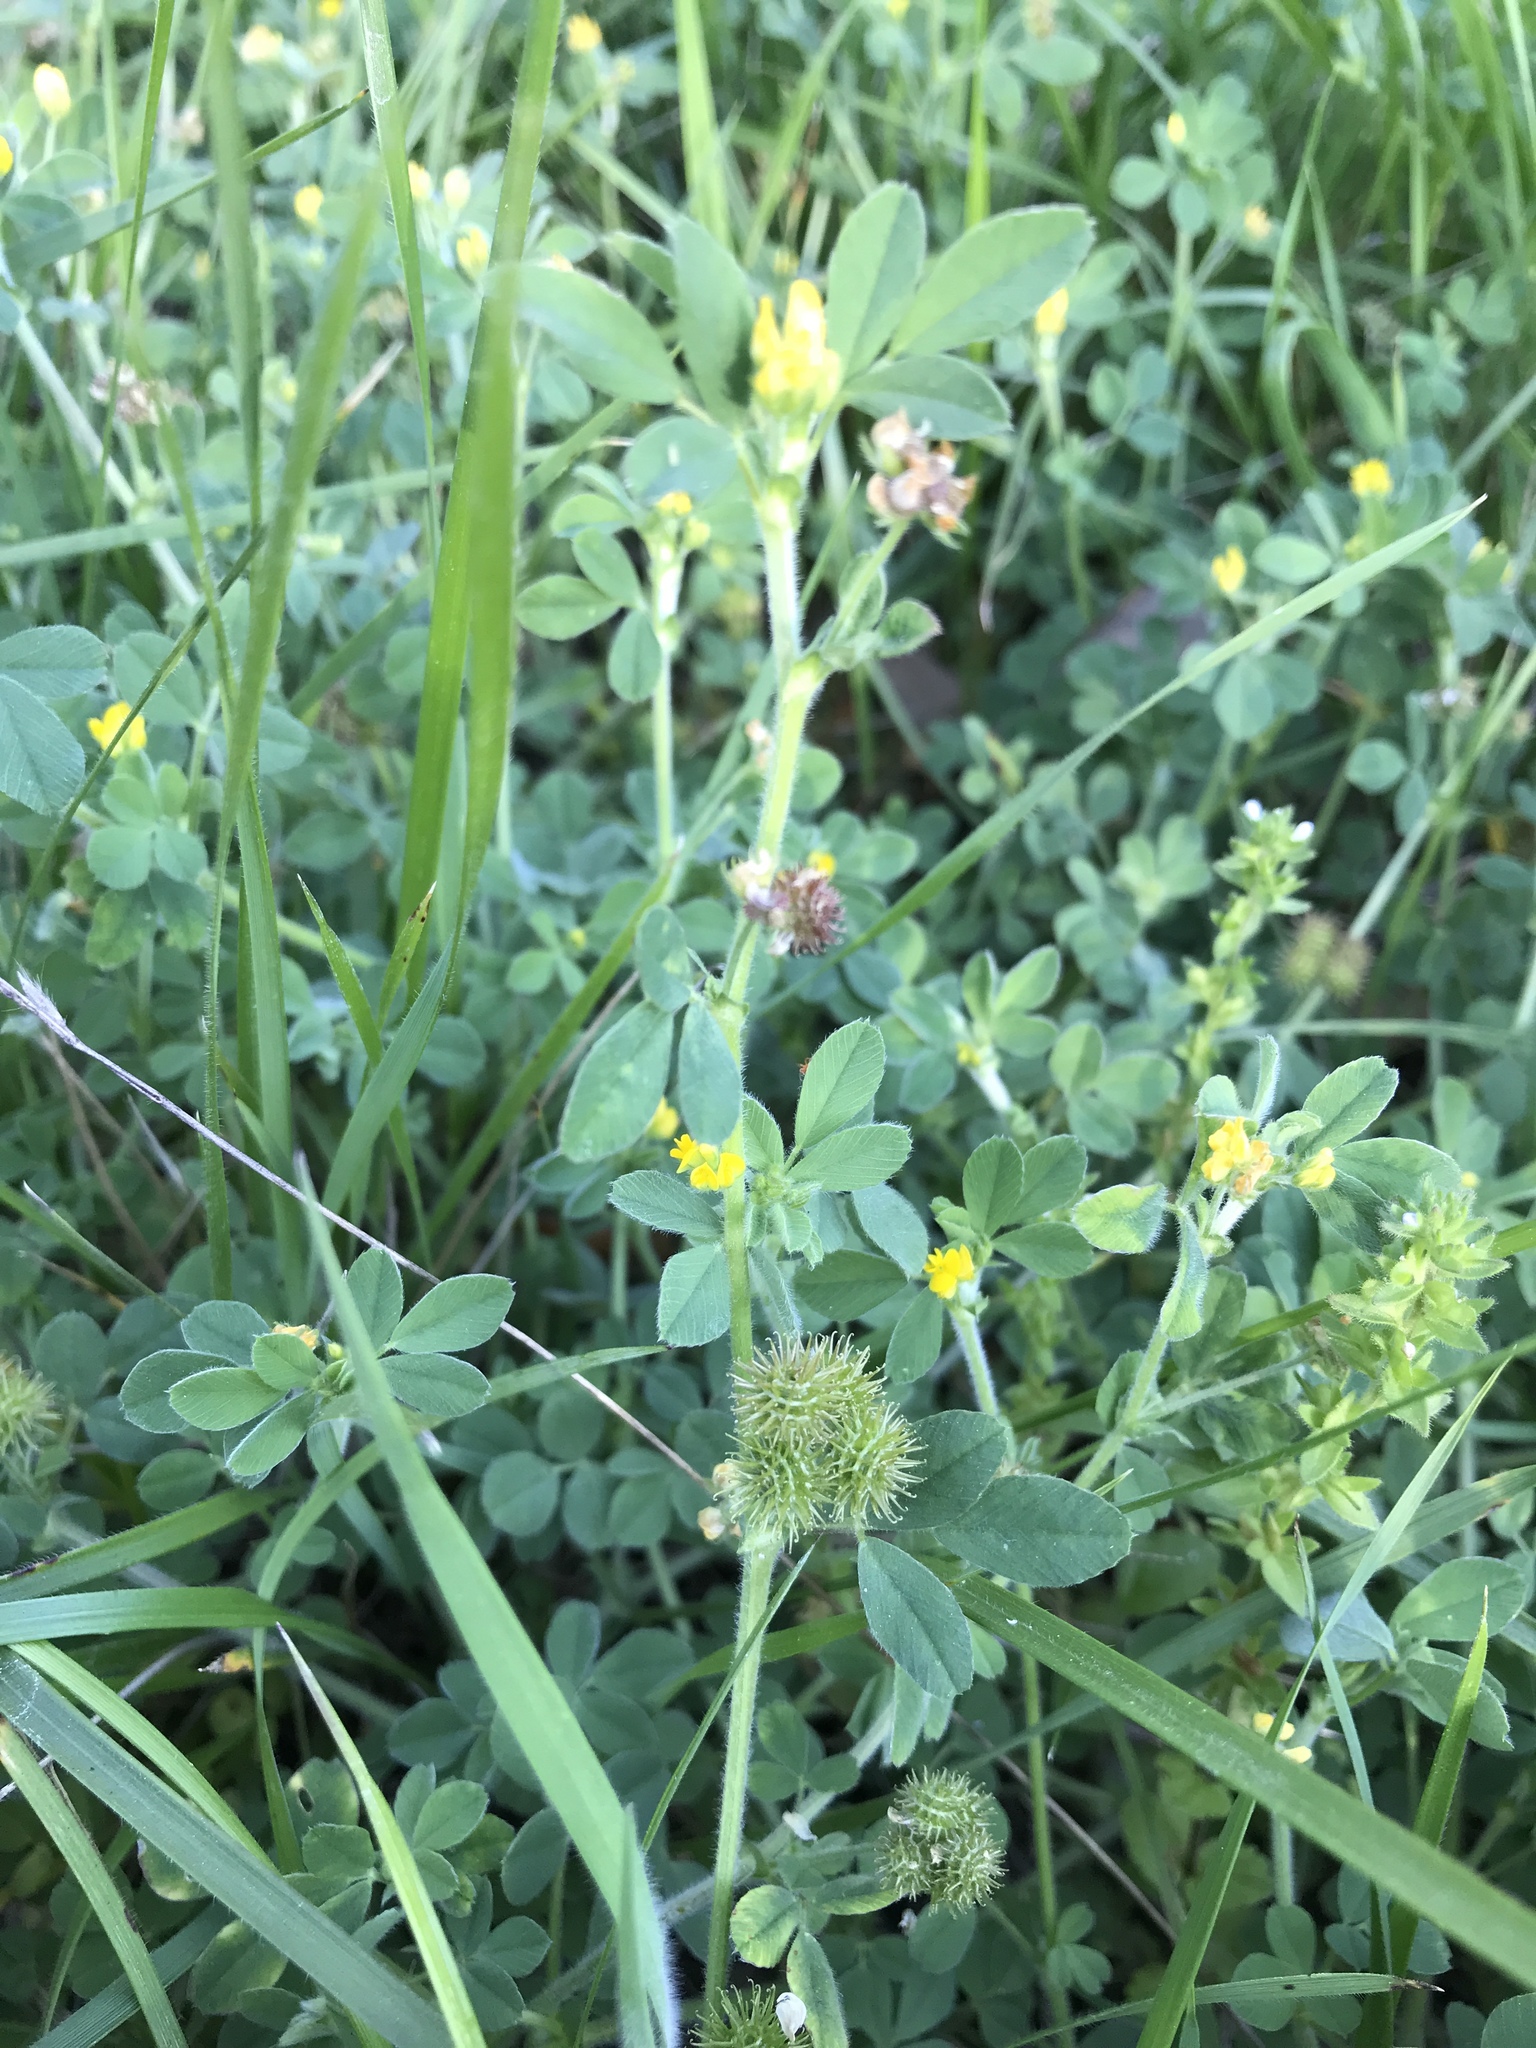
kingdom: Plantae
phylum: Tracheophyta
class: Magnoliopsida
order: Fabales
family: Fabaceae
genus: Medicago
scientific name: Medicago minima
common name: Little bur-clover
